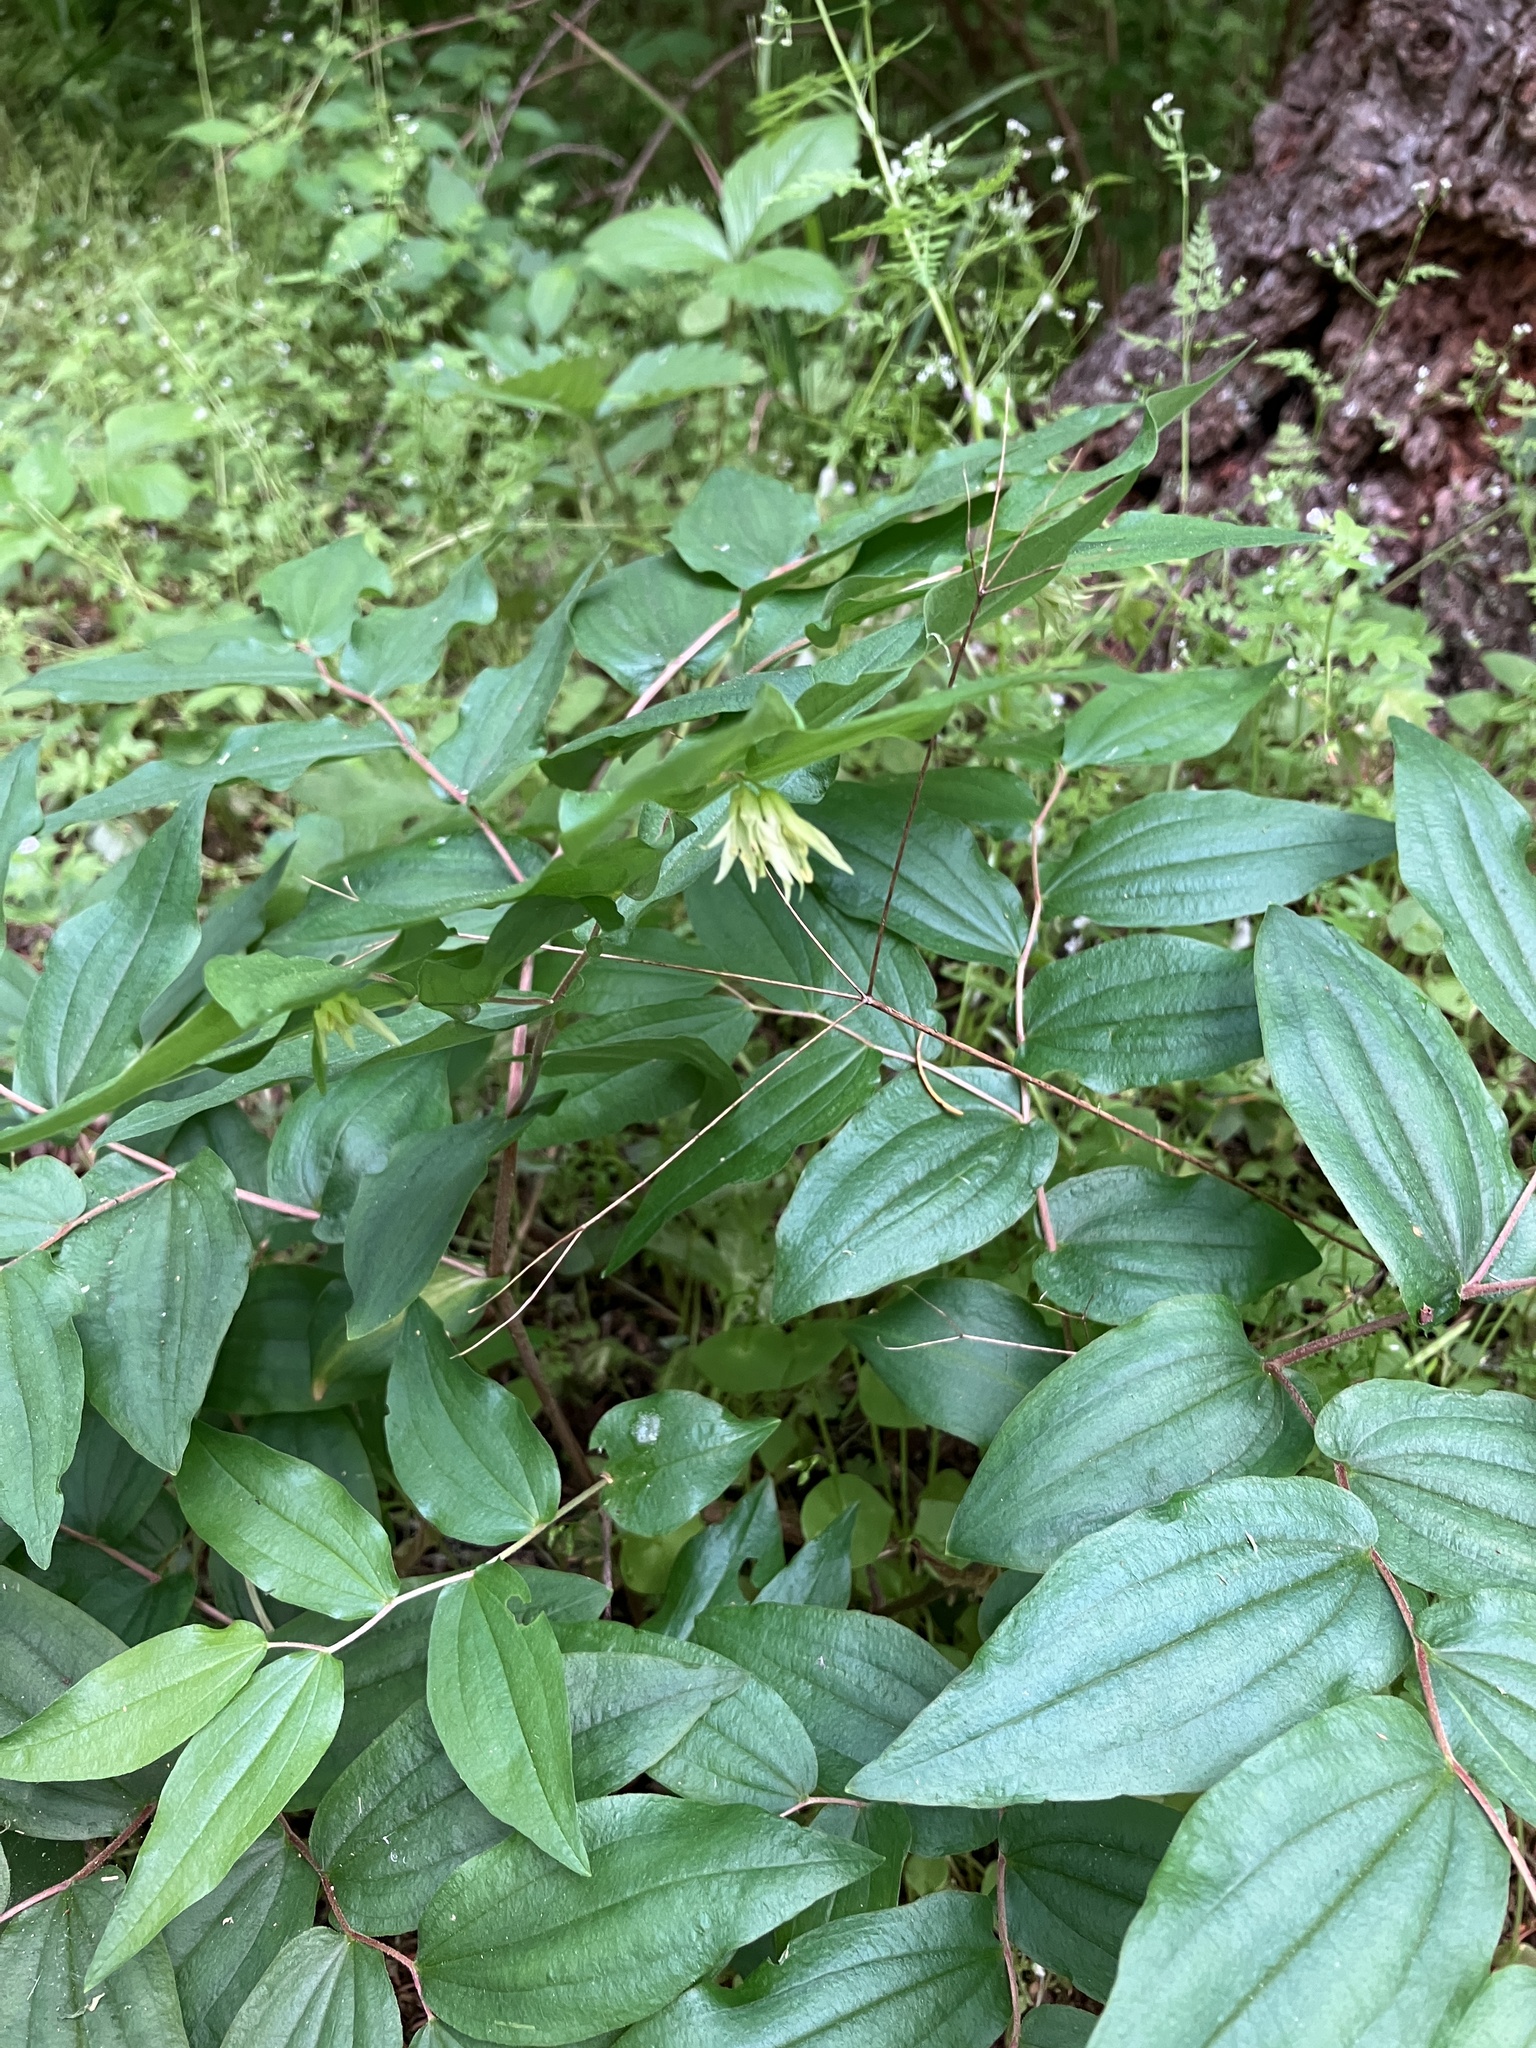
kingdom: Plantae
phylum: Tracheophyta
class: Liliopsida
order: Liliales
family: Liliaceae
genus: Prosartes
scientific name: Prosartes hookeri
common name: Fairy-bells
